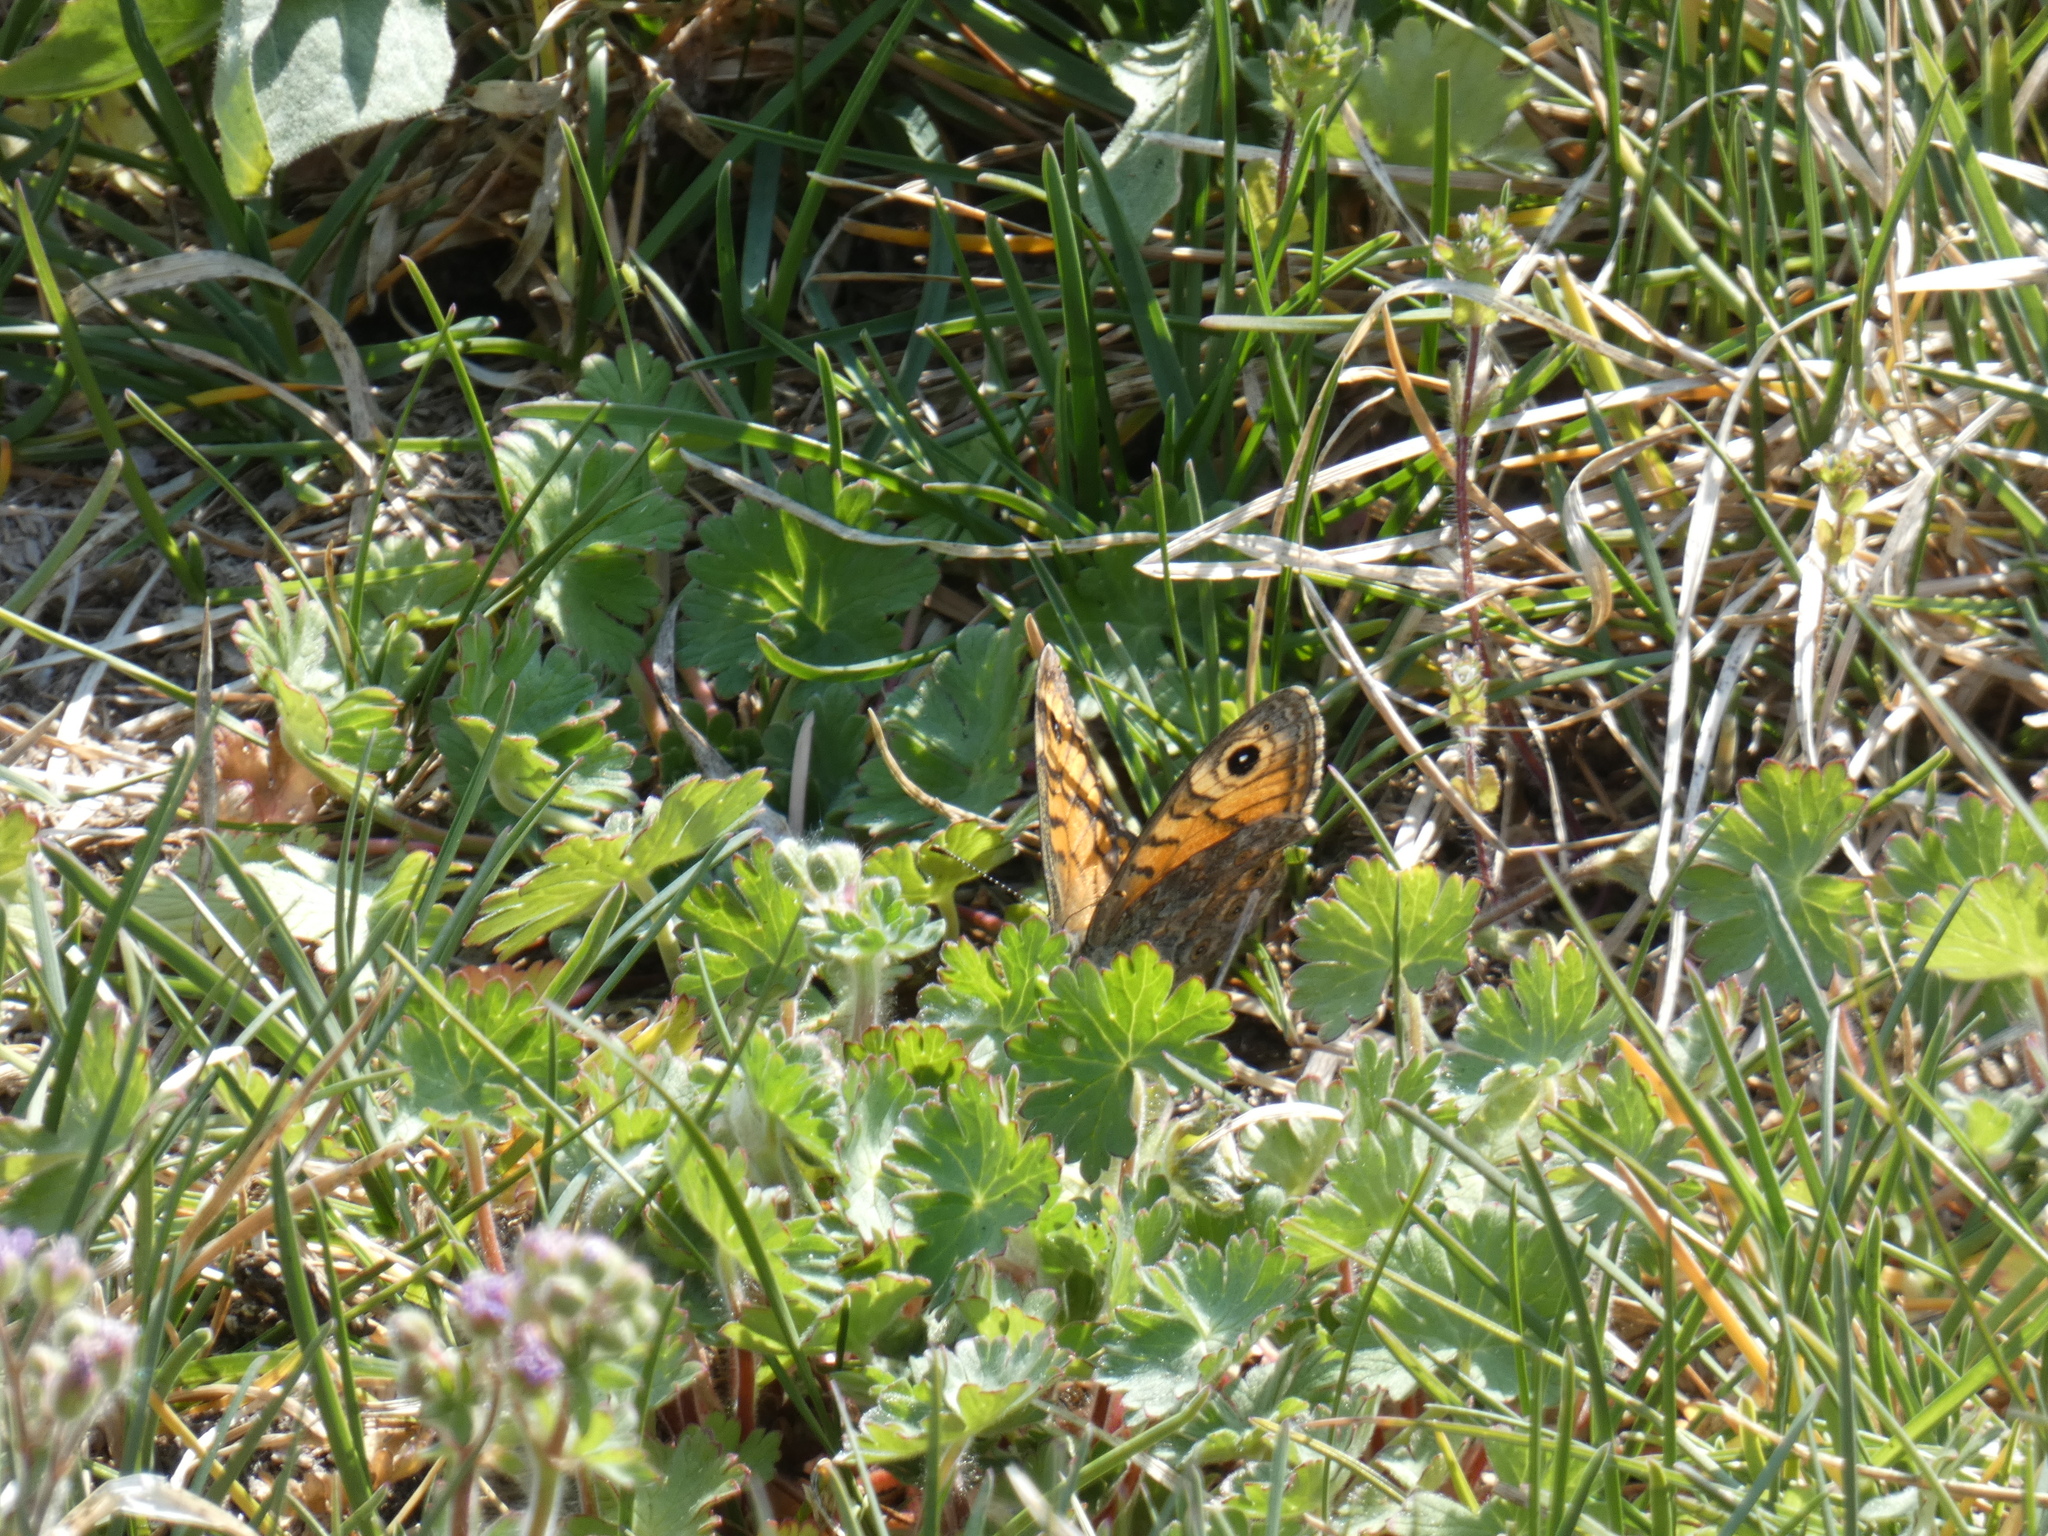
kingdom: Animalia
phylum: Arthropoda
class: Insecta
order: Lepidoptera
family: Nymphalidae
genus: Pararge
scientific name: Pararge Lasiommata megera
